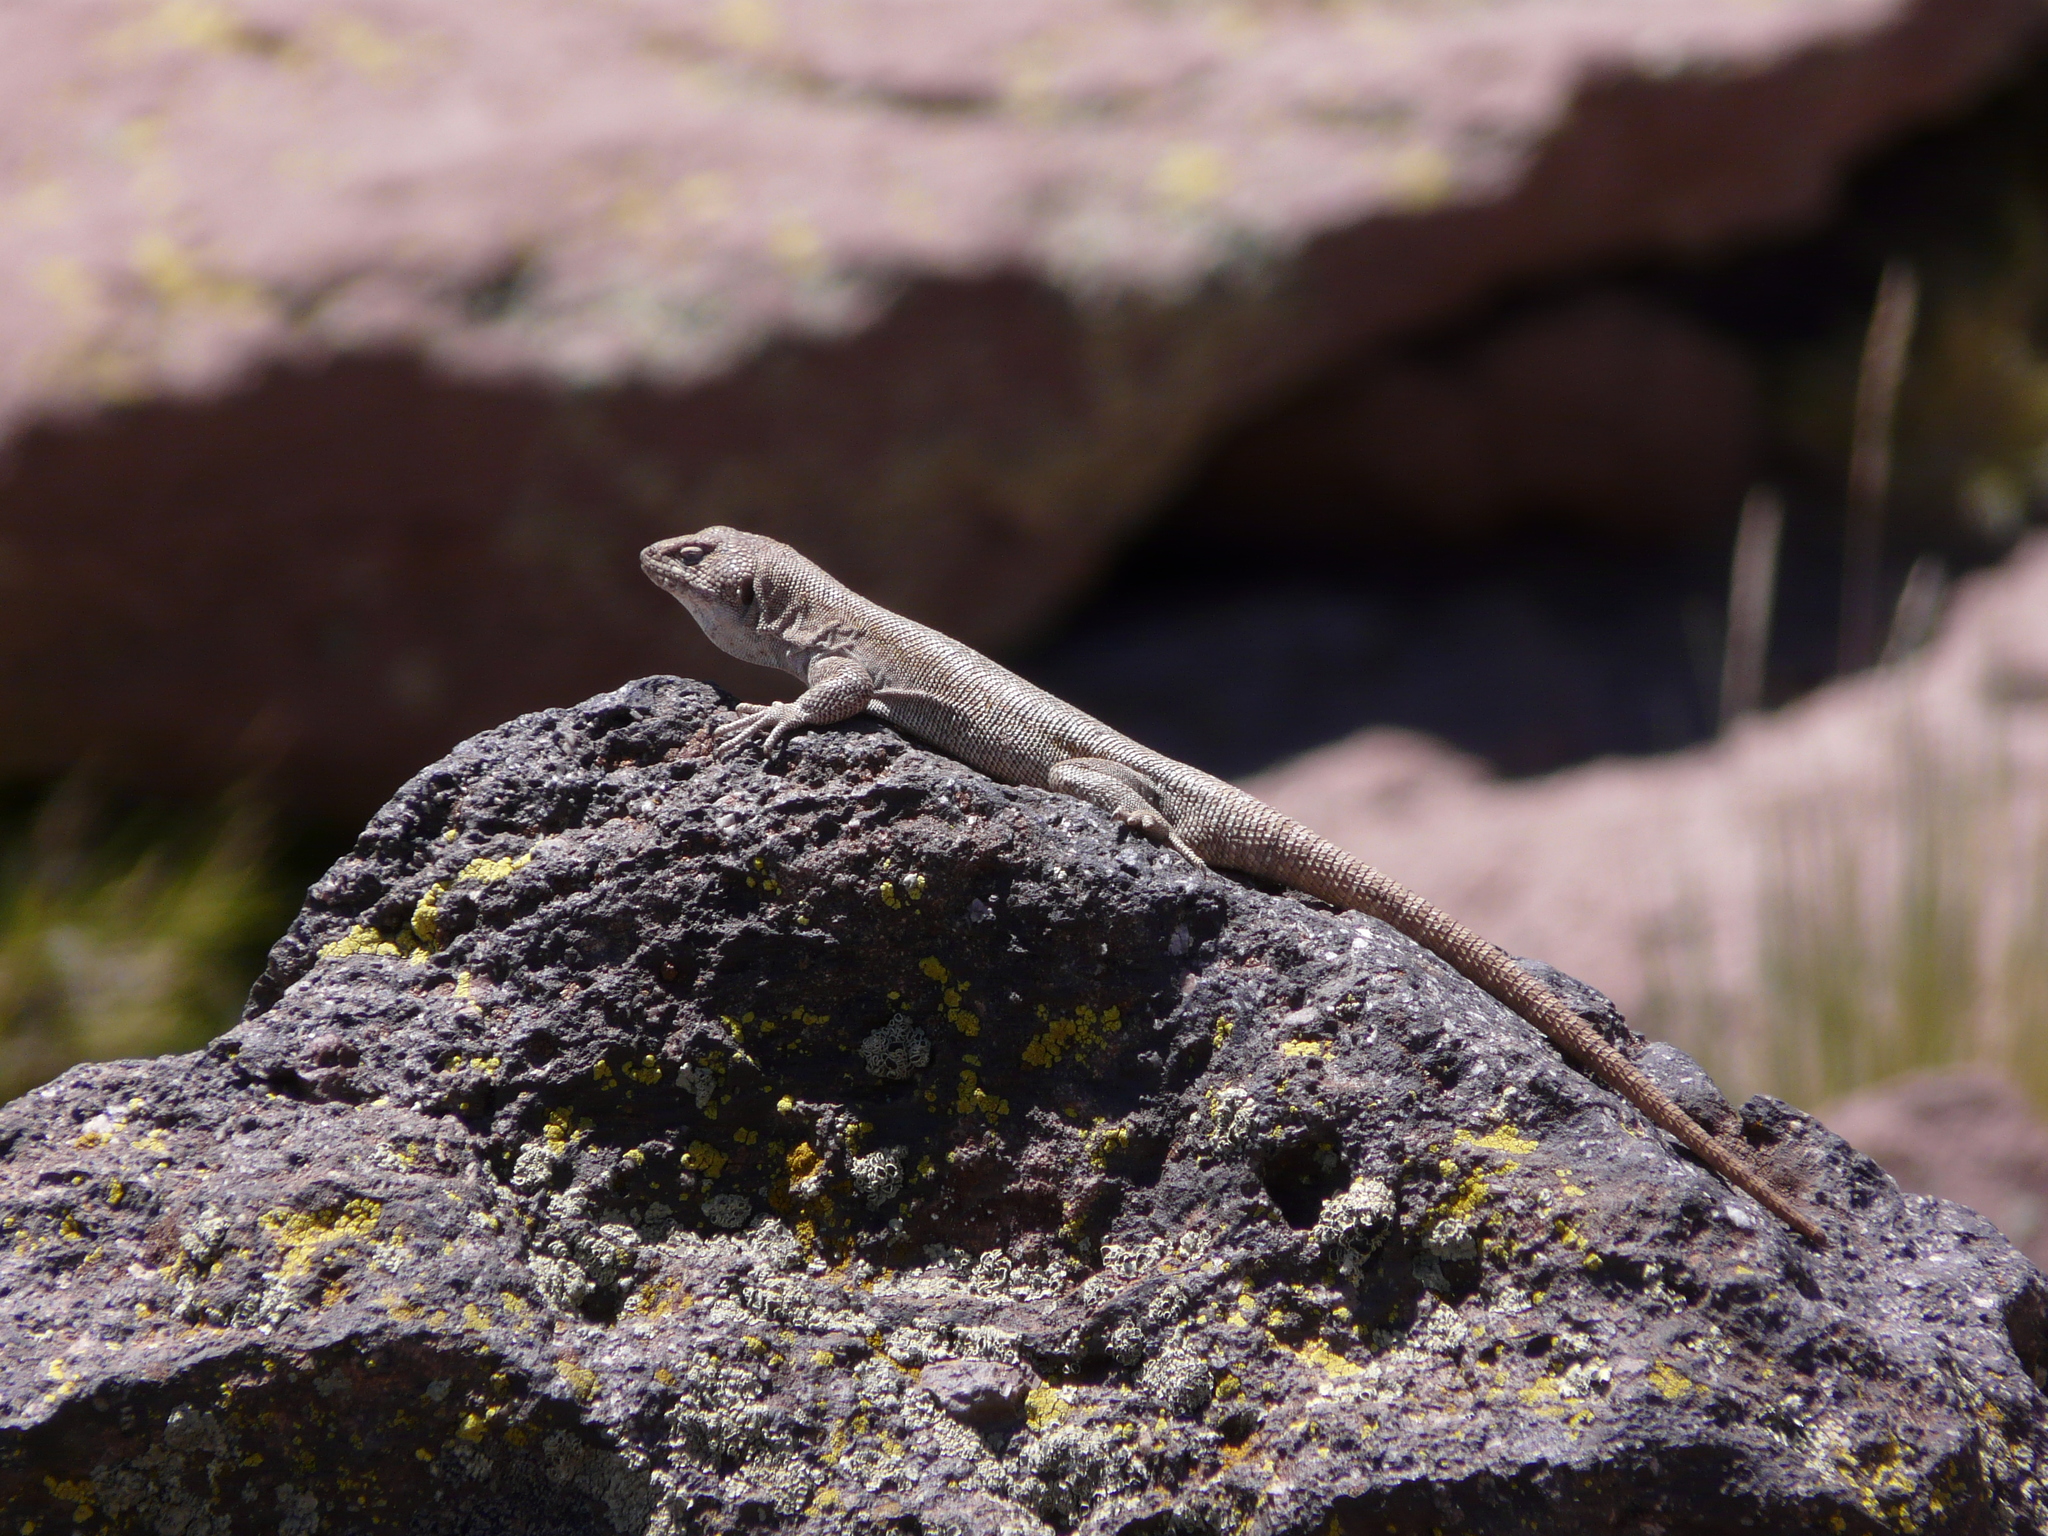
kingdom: Animalia
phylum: Chordata
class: Squamata
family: Liolaemidae
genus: Liolaemus
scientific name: Liolaemus austromendocinus
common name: Austromendocino tree iguana
